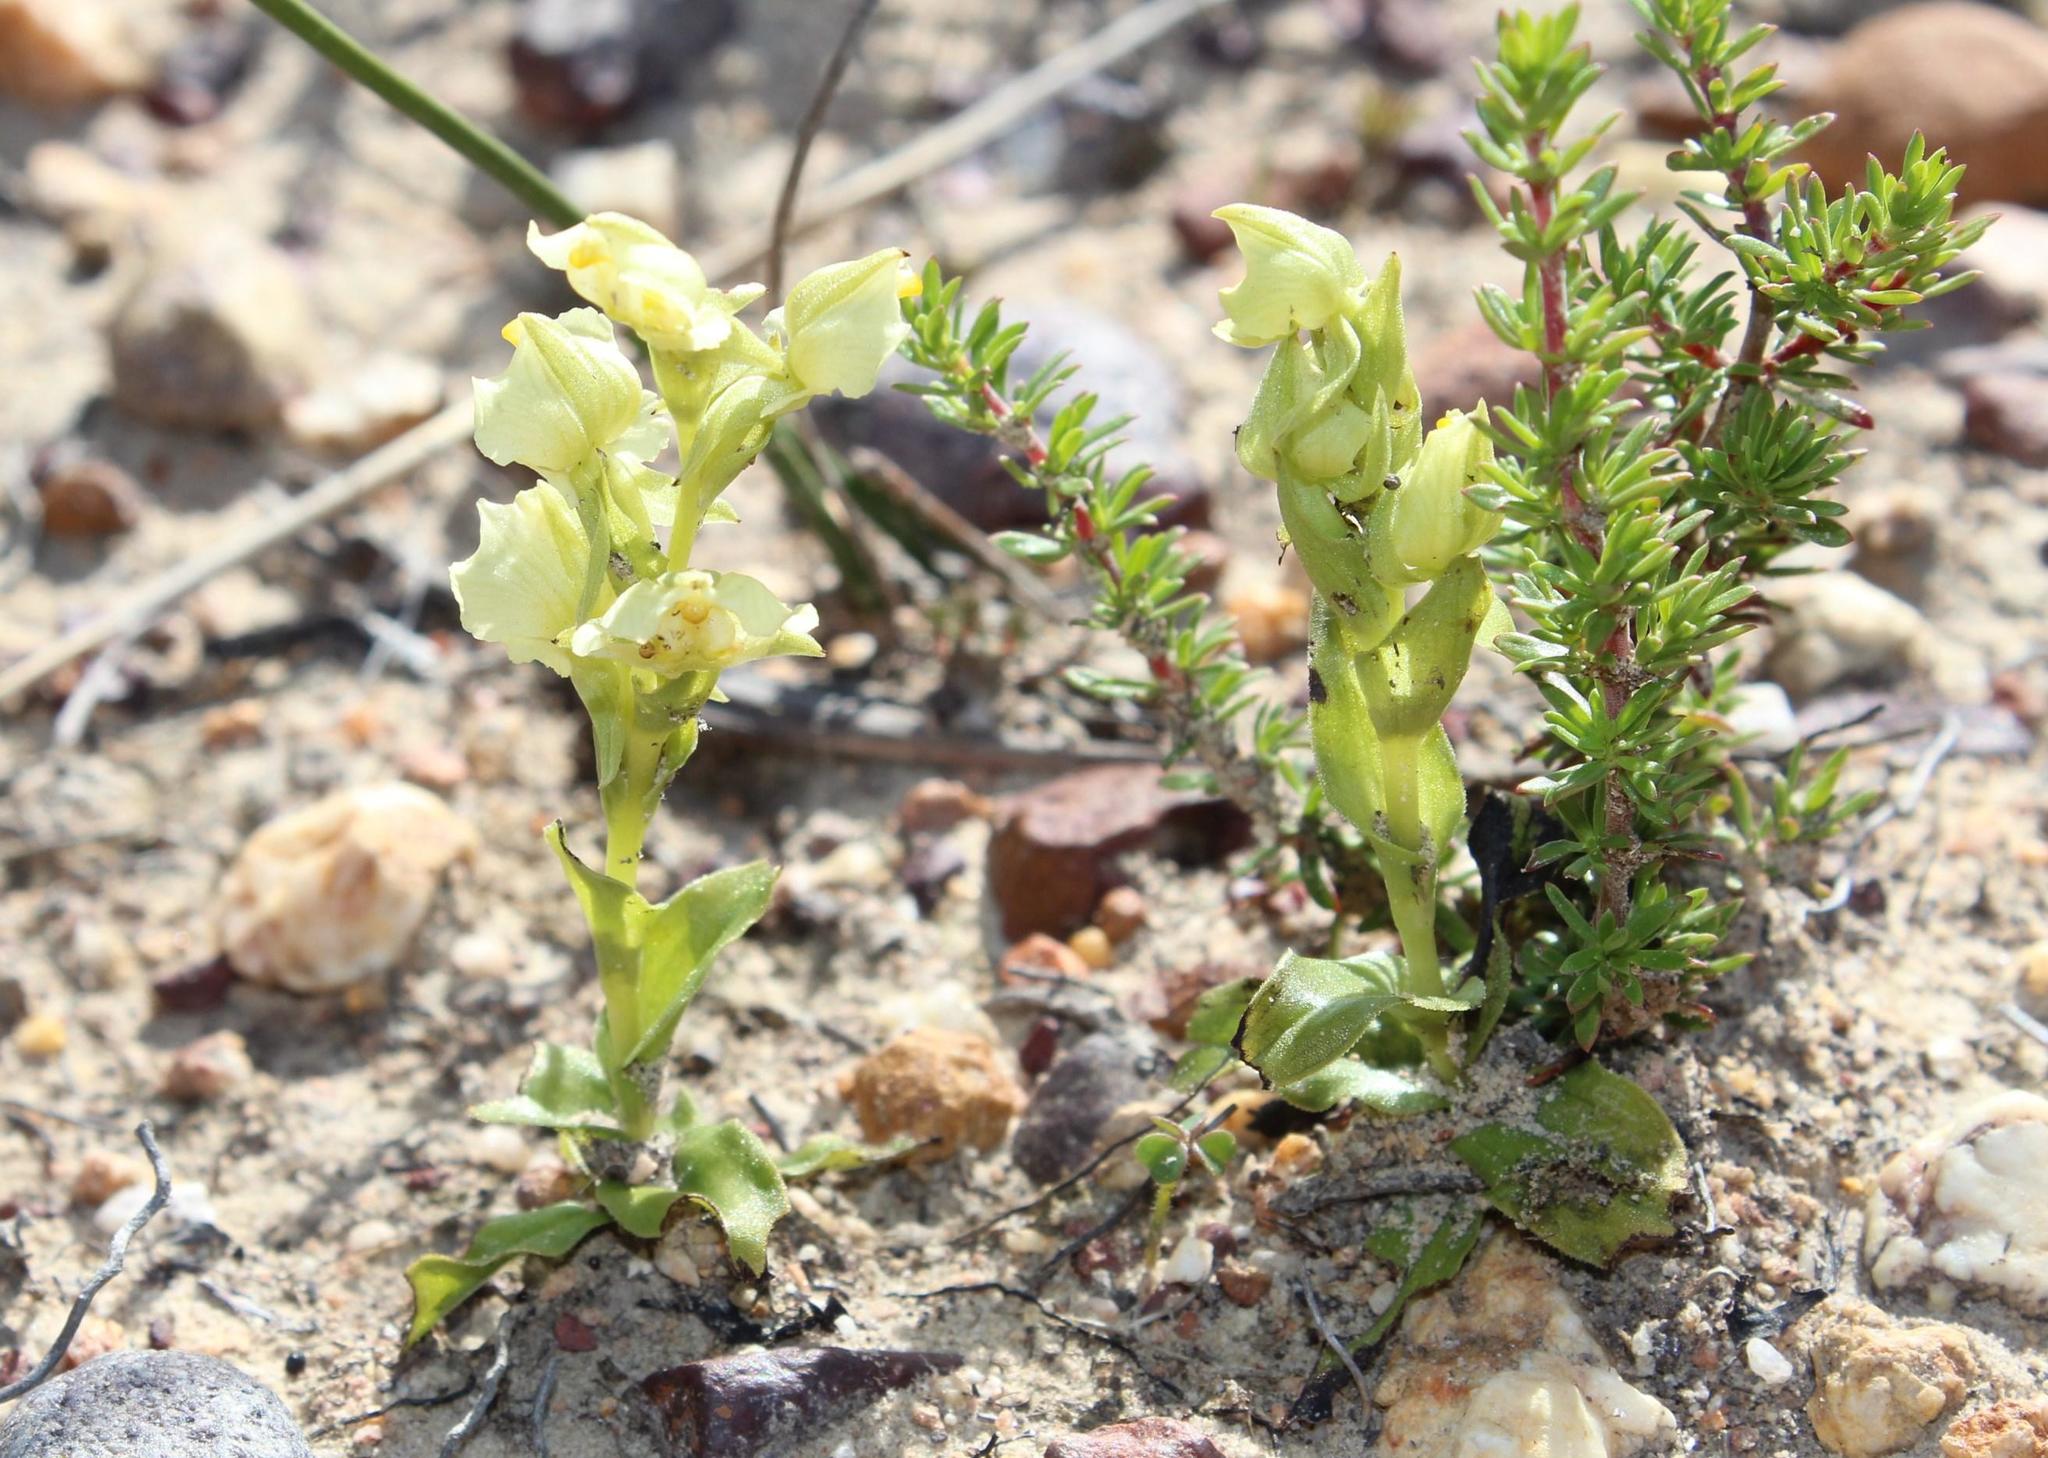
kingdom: Plantae
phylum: Tracheophyta
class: Liliopsida
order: Asparagales
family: Orchidaceae
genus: Pterygodium
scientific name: Pterygodium alatum
